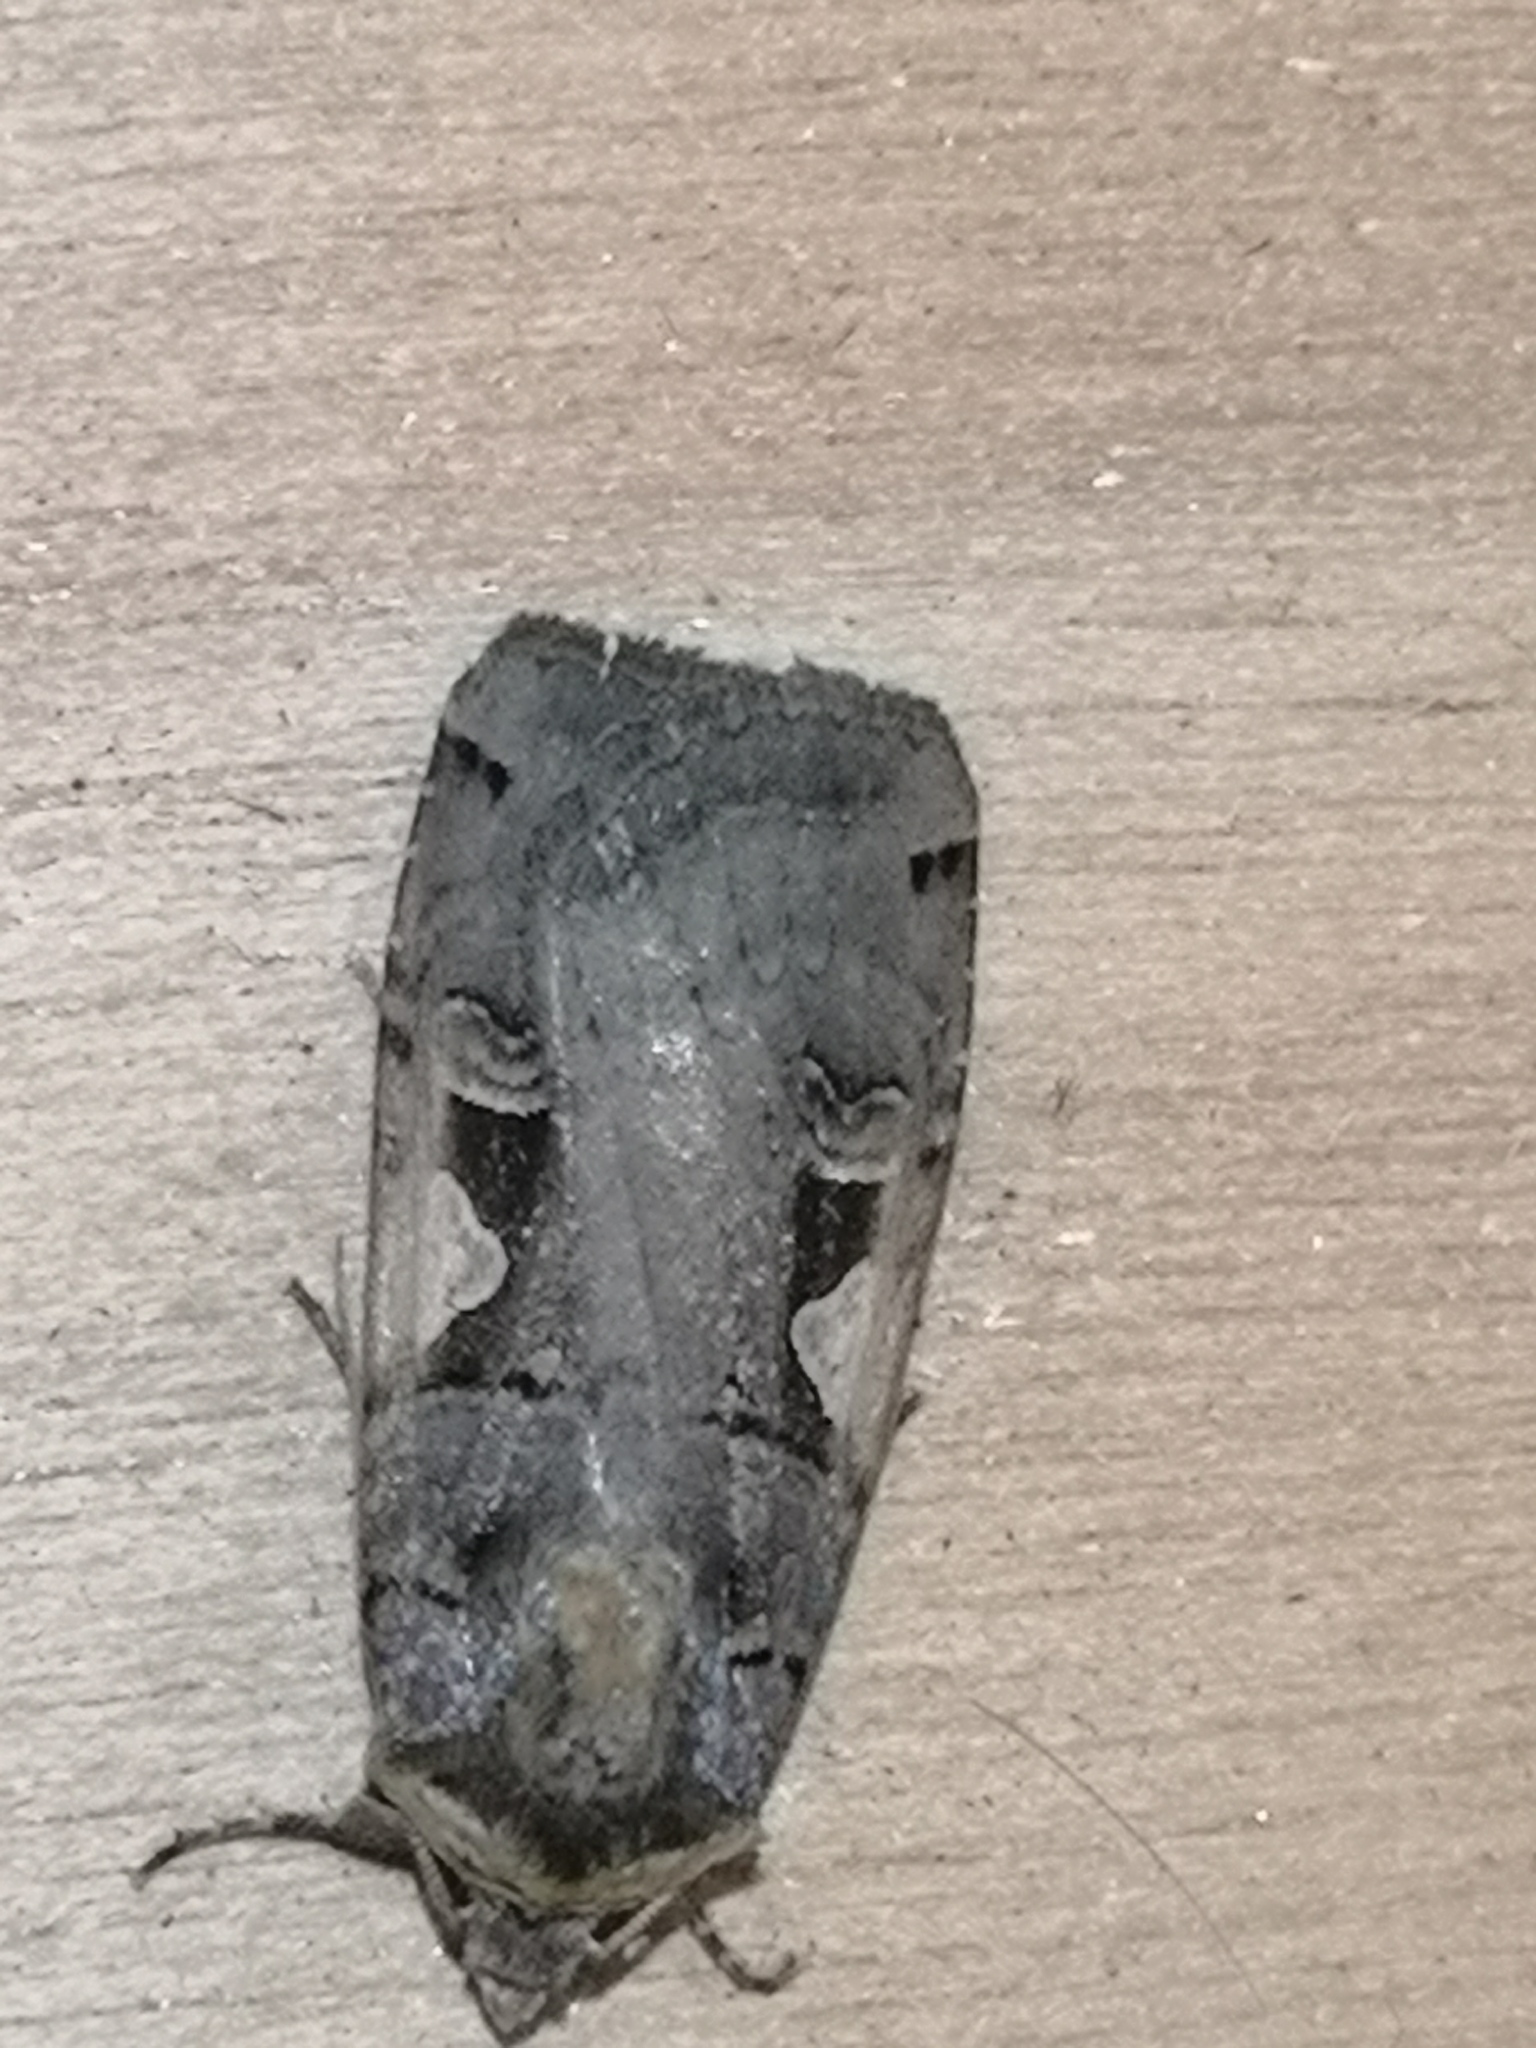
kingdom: Animalia
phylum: Arthropoda
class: Insecta
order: Lepidoptera
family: Noctuidae
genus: Xestia
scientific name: Xestia c-nigrum
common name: Setaceous hebrew character
